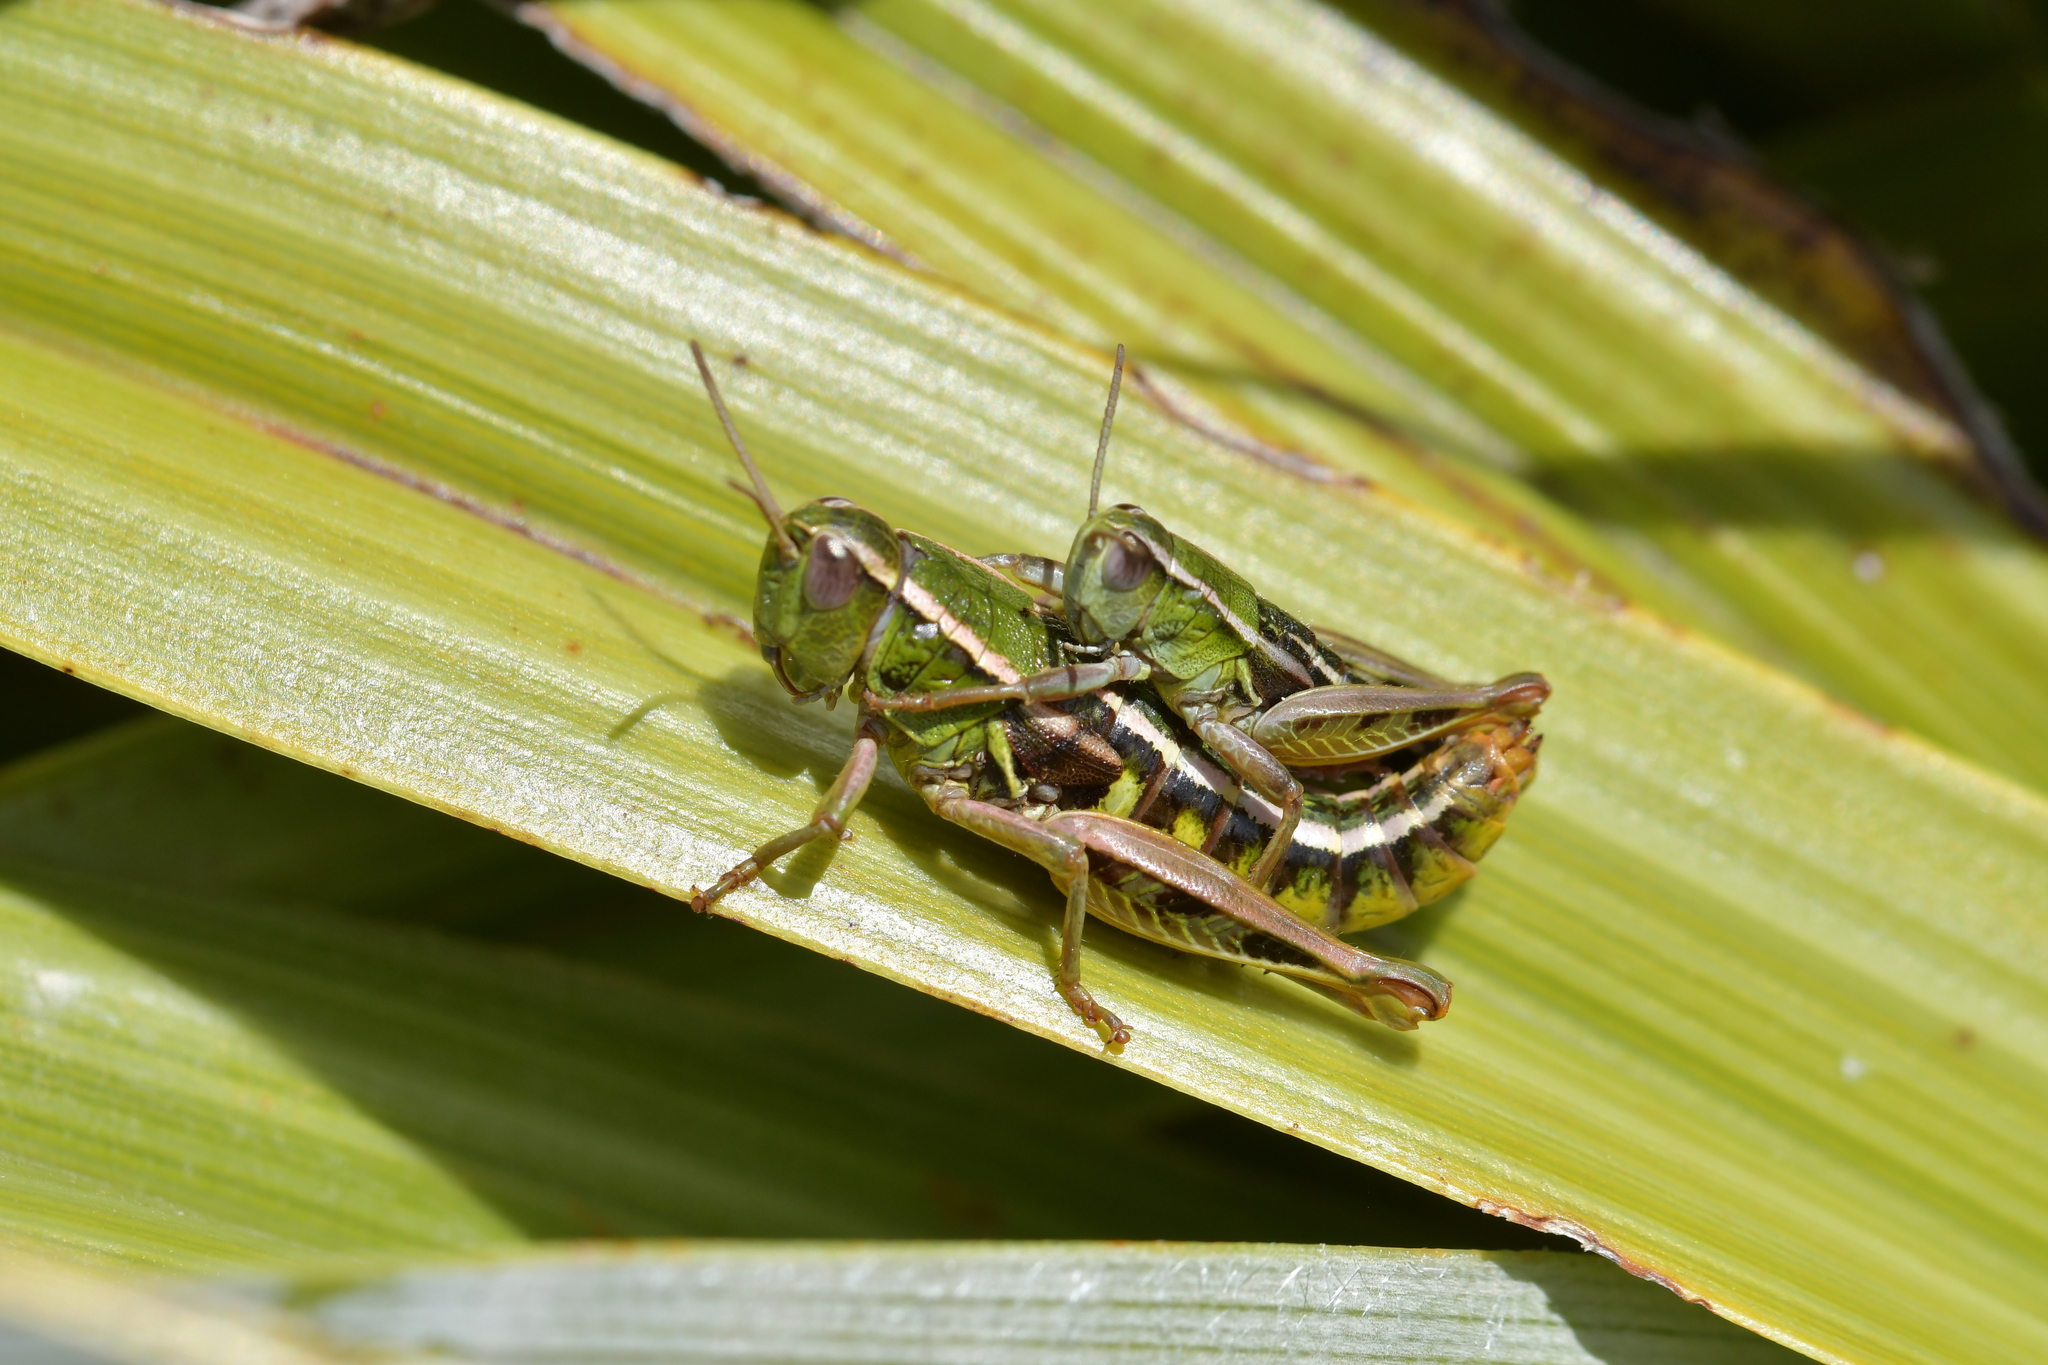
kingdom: Animalia
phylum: Arthropoda
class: Insecta
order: Orthoptera
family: Acrididae
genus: Sigaus
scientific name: Sigaus
